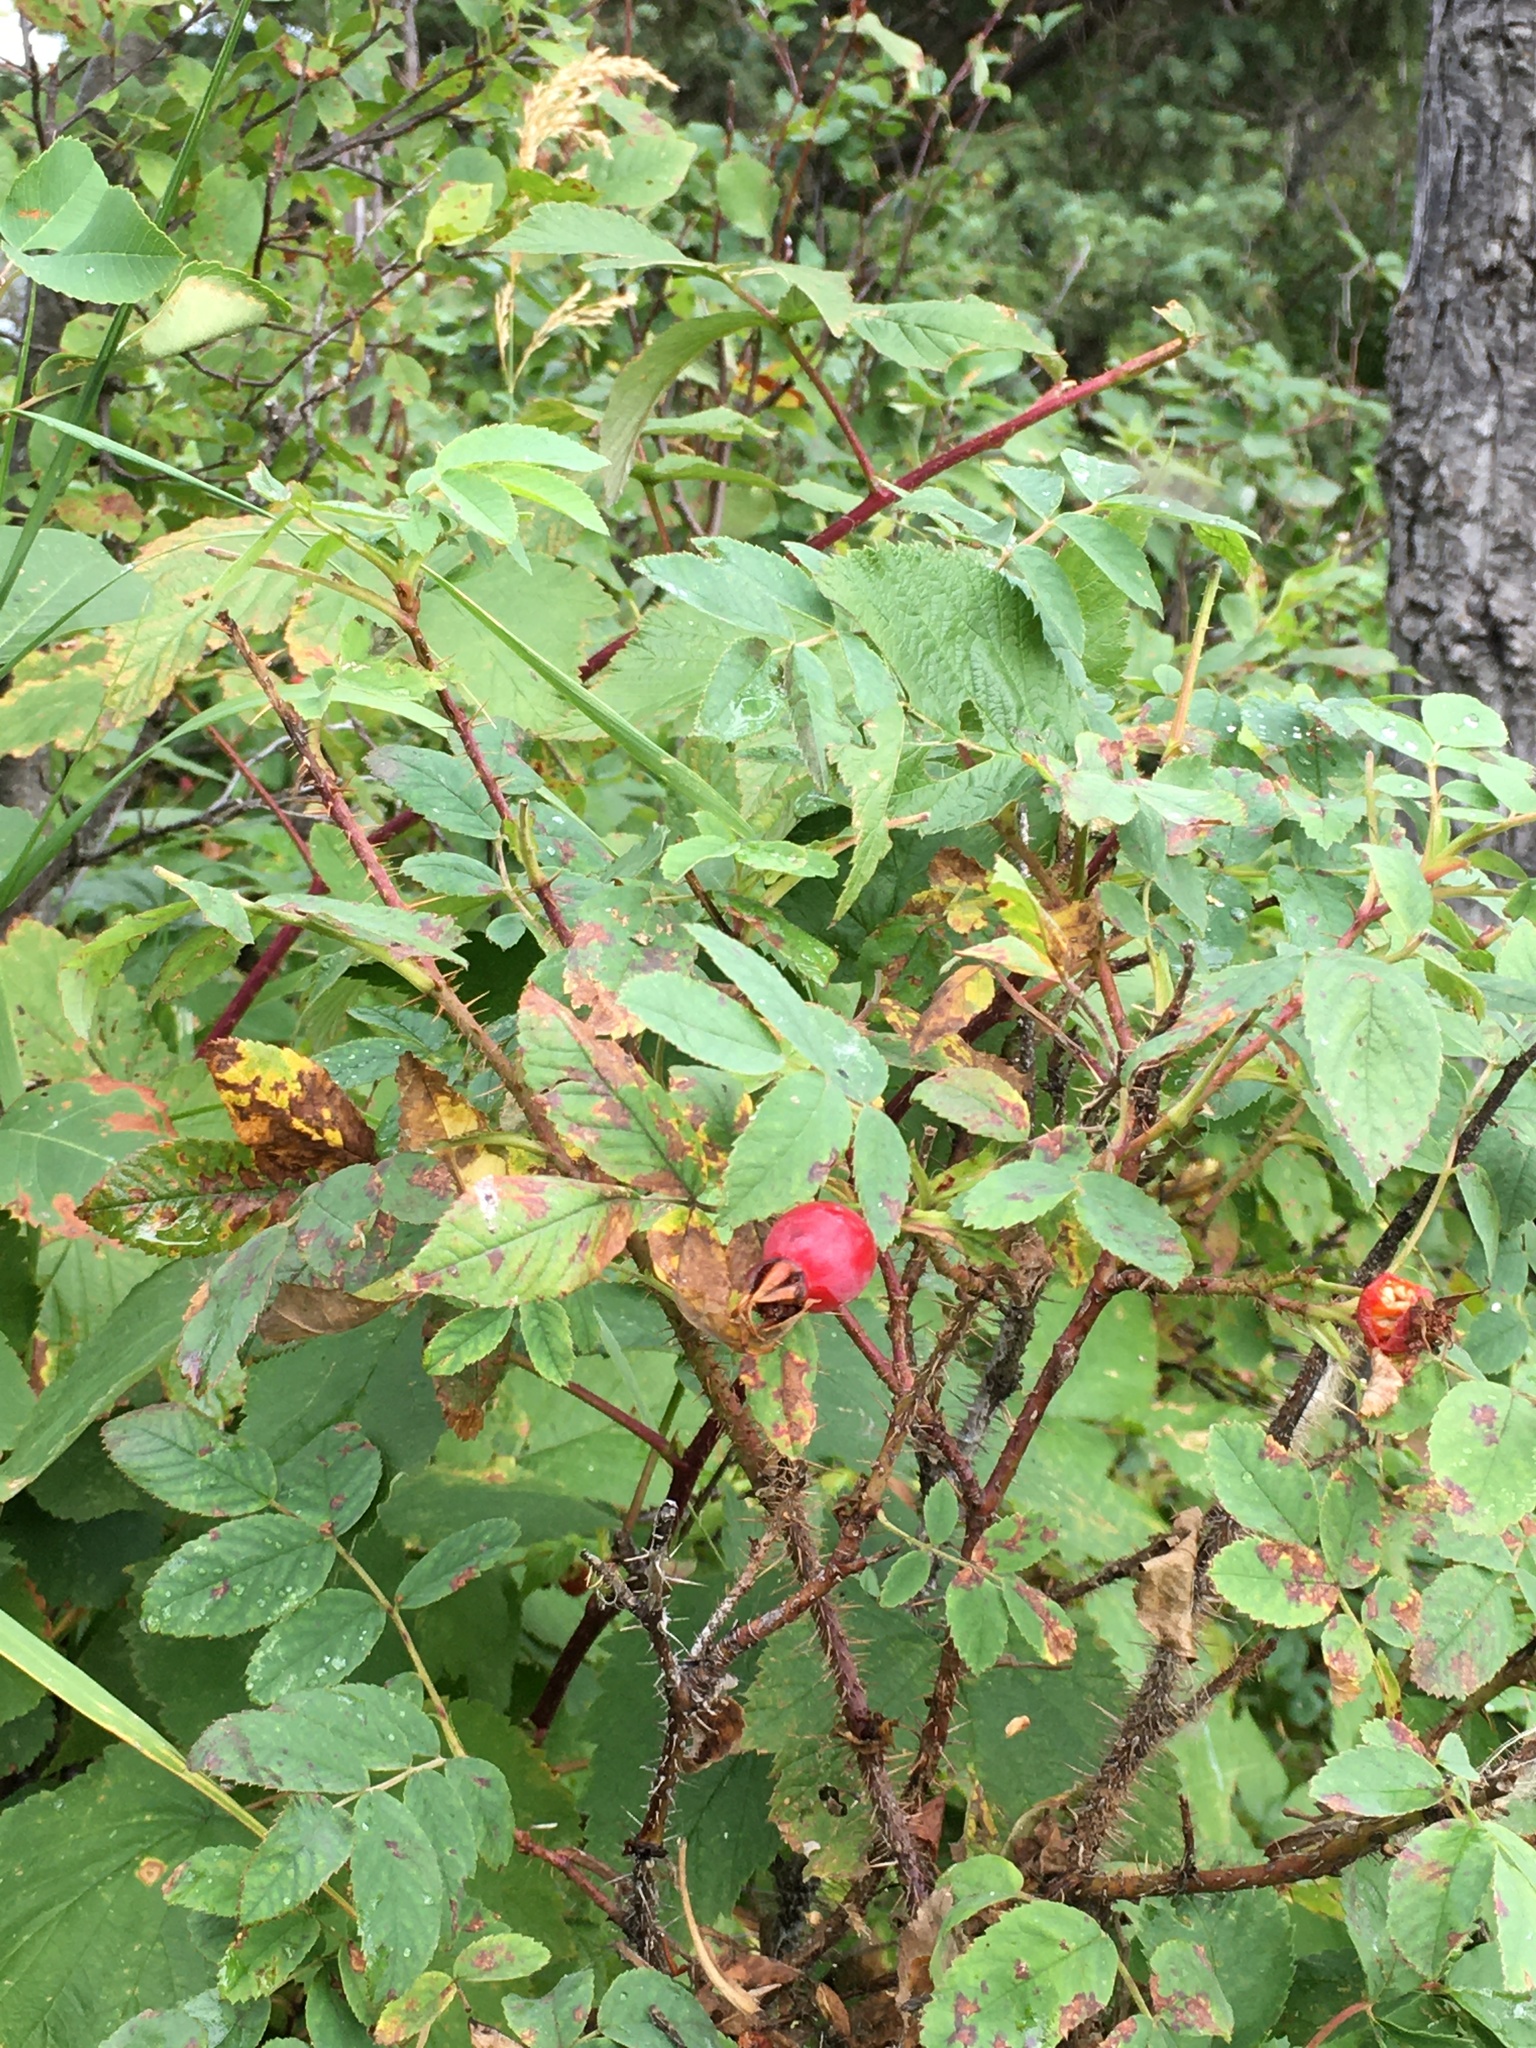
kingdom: Plantae
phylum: Tracheophyta
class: Magnoliopsida
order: Rosales
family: Rosaceae
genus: Rosa
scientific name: Rosa acicularis
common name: Prickly rose
